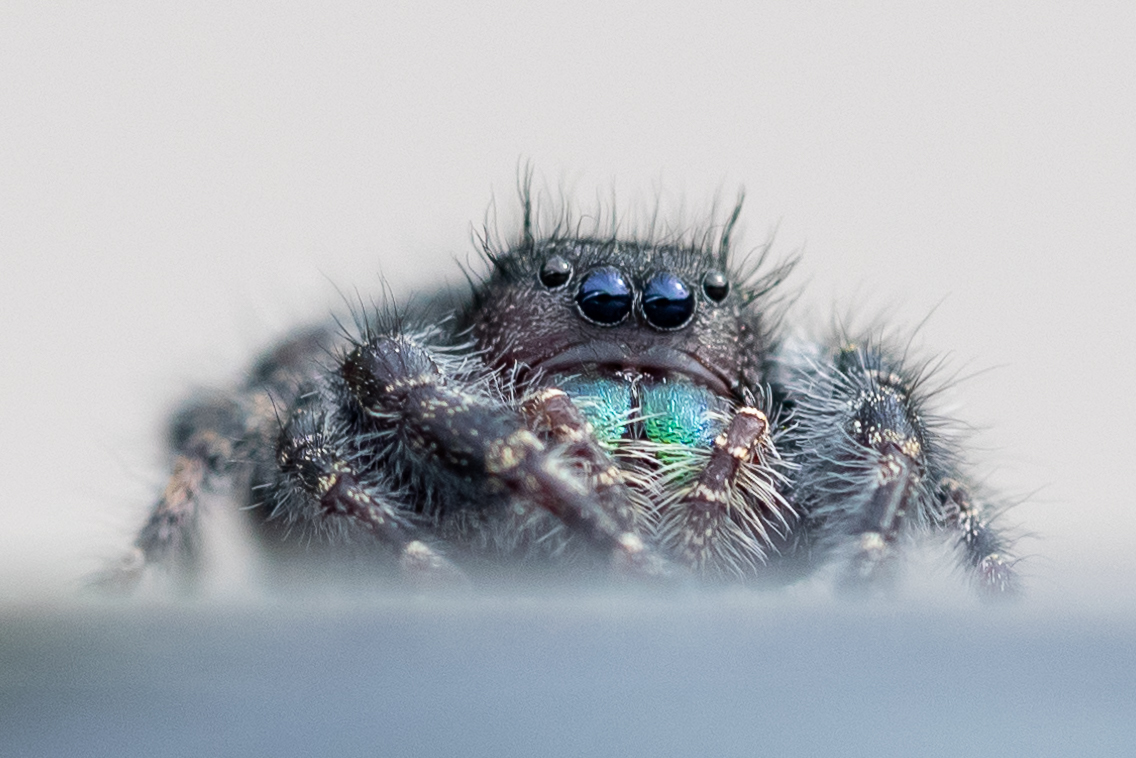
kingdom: Animalia
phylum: Arthropoda
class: Arachnida
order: Araneae
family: Salticidae
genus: Phidippus
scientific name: Phidippus audax
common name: Bold jumper
